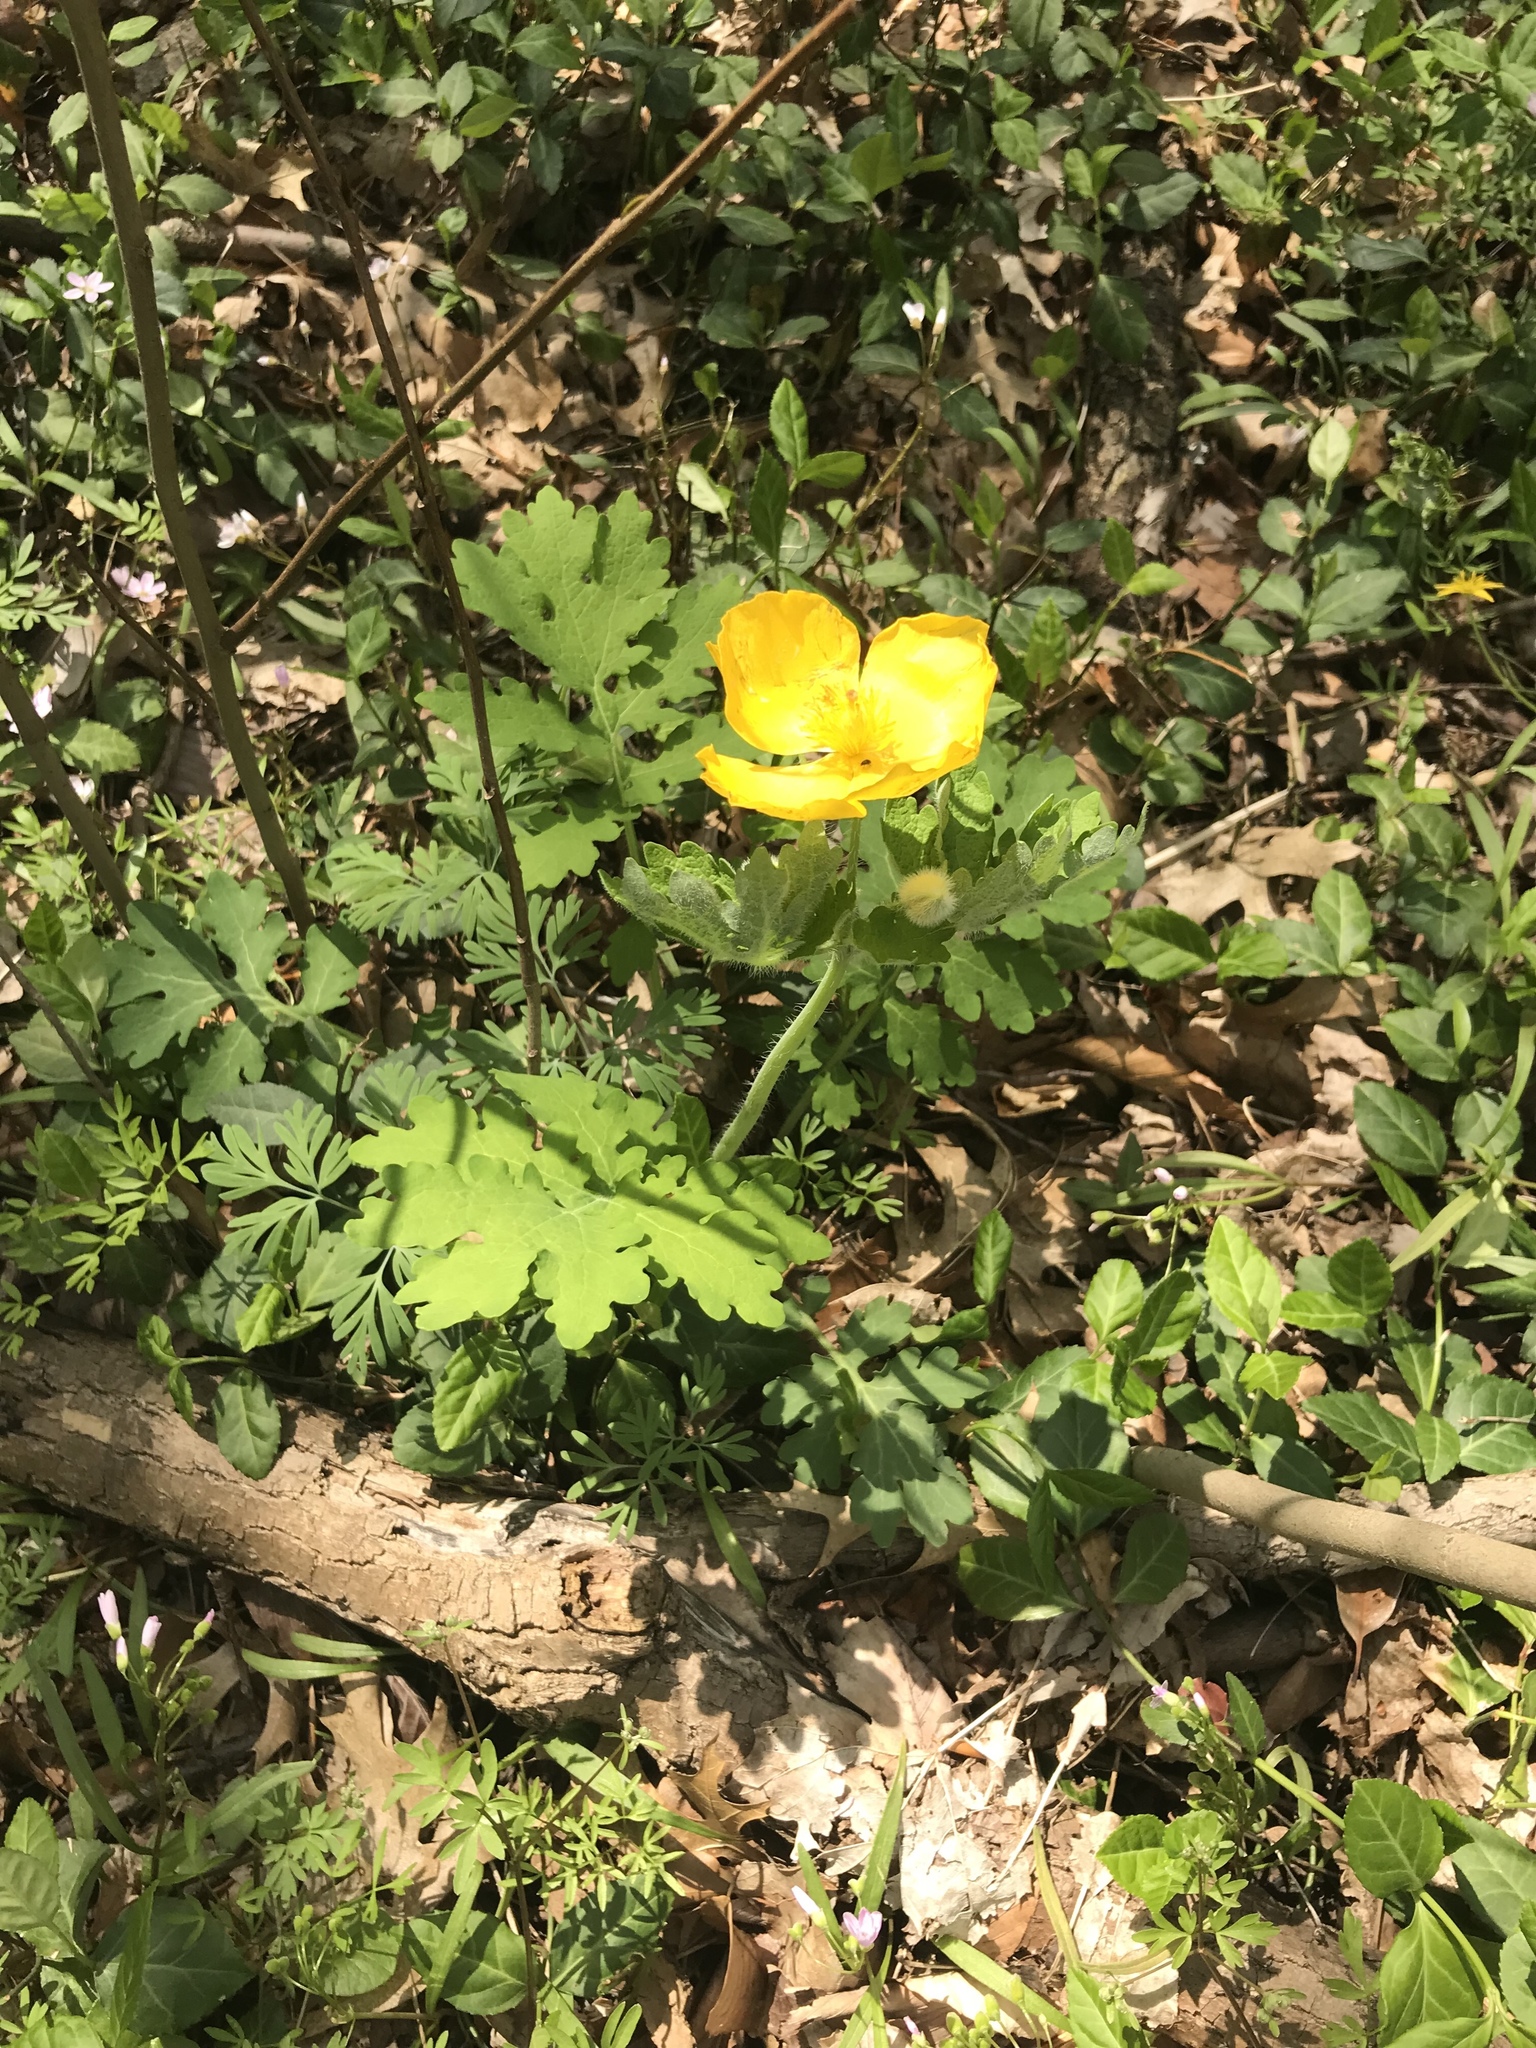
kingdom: Plantae
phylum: Tracheophyta
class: Magnoliopsida
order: Ranunculales
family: Papaveraceae
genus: Stylophorum
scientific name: Stylophorum diphyllum
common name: Celandine poppy
